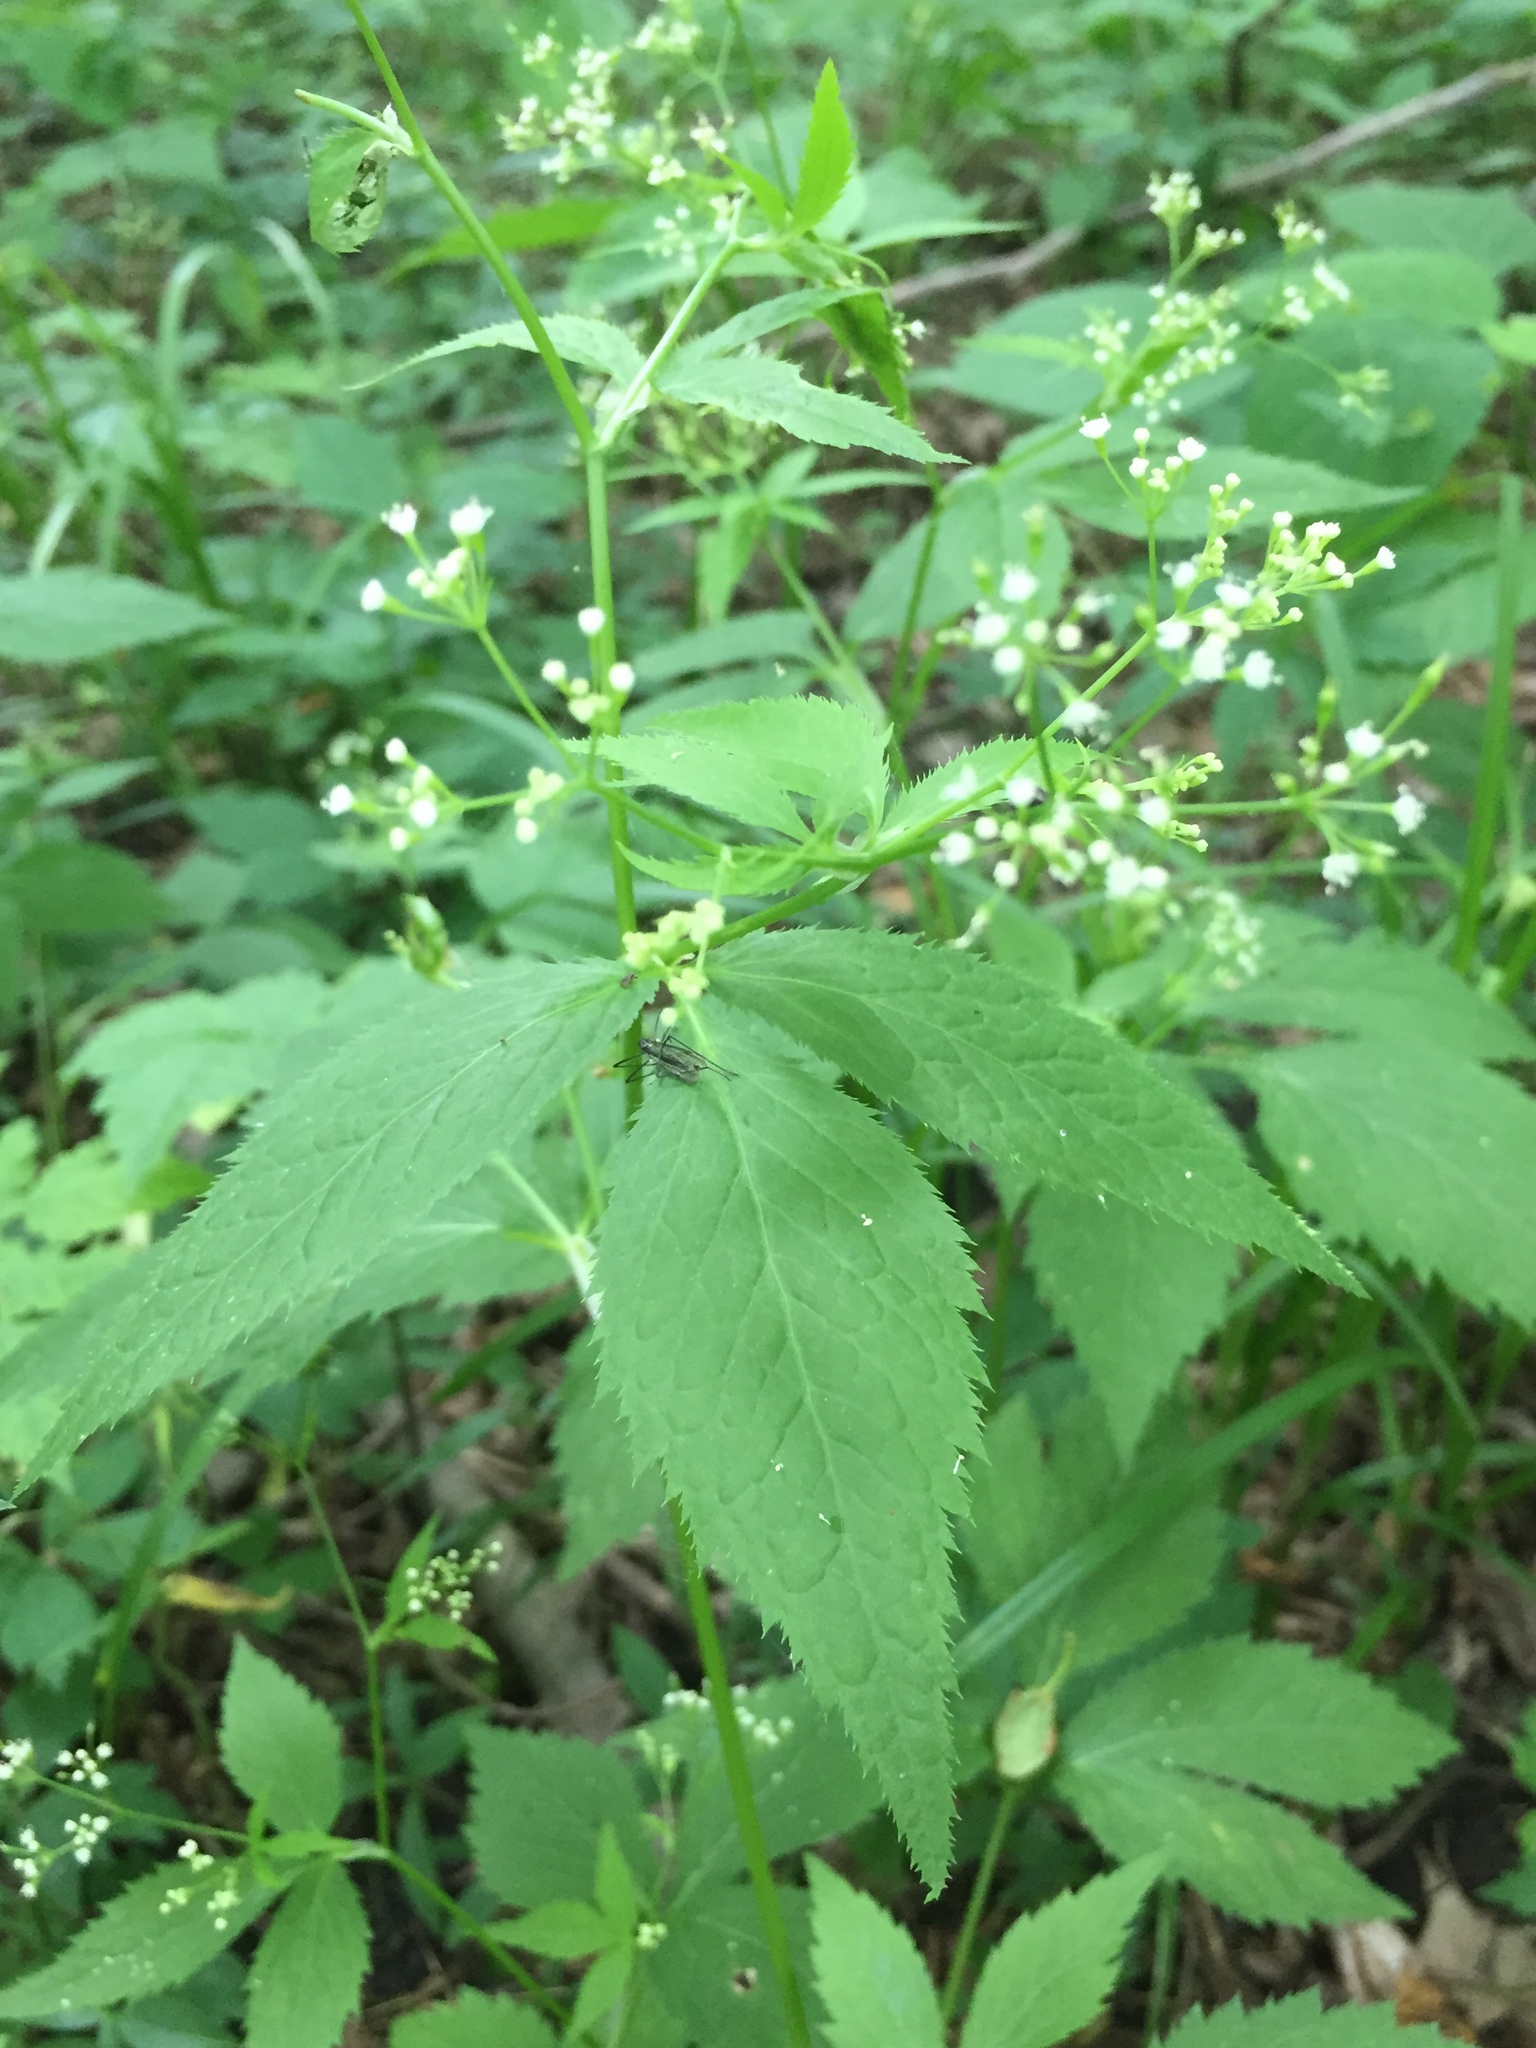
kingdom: Plantae
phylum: Tracheophyta
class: Magnoliopsida
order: Apiales
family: Apiaceae
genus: Cryptotaenia
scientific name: Cryptotaenia canadensis
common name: Honewort
